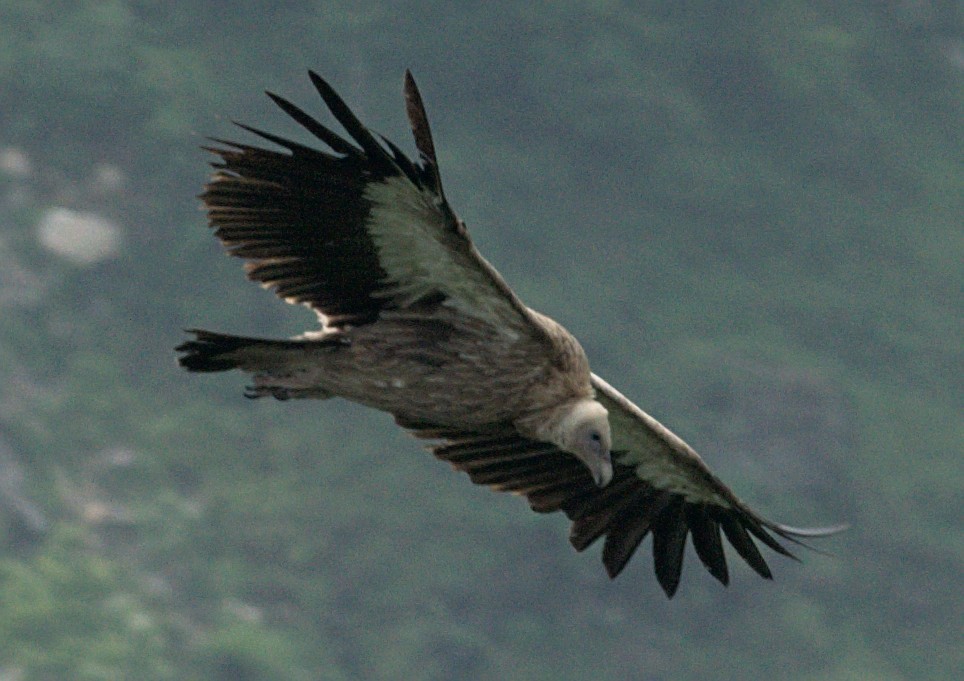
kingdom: Animalia
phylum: Chordata
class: Aves
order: Accipitriformes
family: Accipitridae
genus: Gyps
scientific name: Gyps himalayensis
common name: Himalayan griffon
